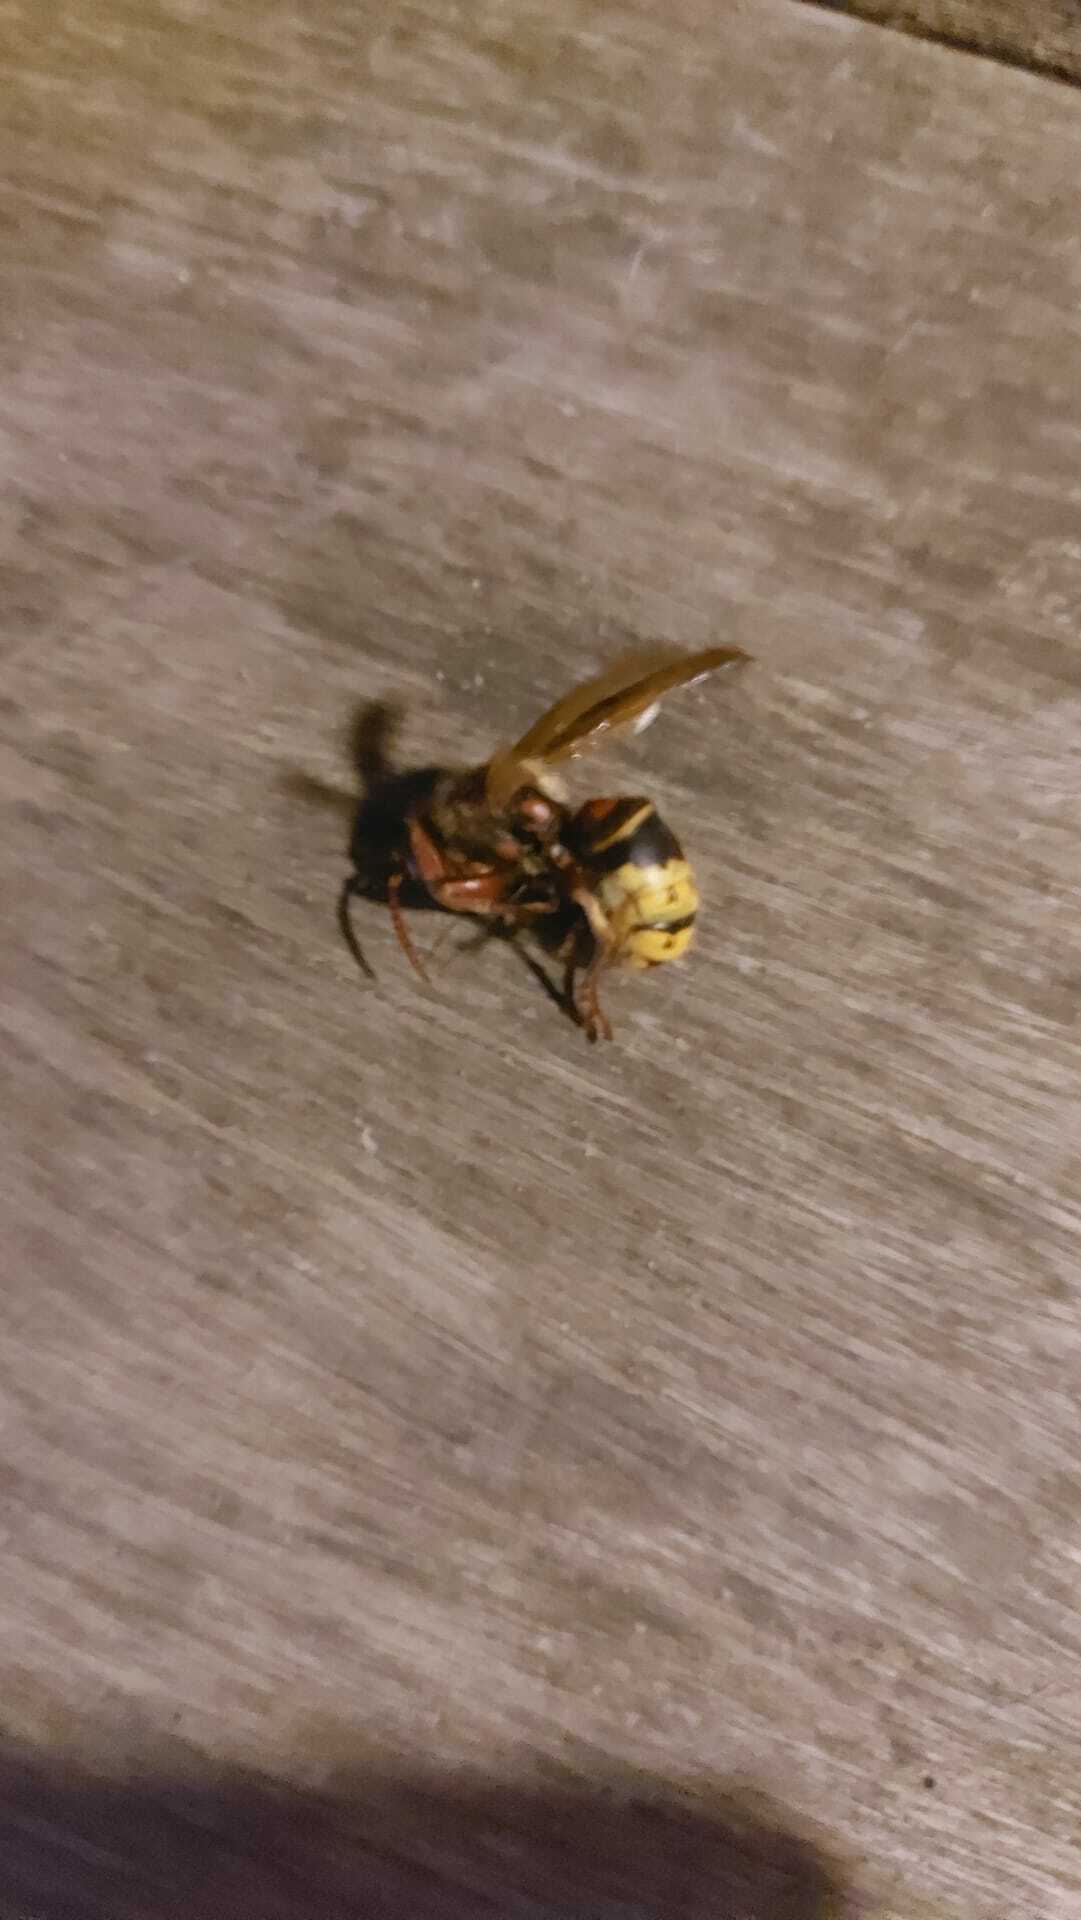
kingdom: Animalia
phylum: Arthropoda
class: Insecta
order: Hymenoptera
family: Vespidae
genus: Vespa
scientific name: Vespa crabro
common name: Hornet
